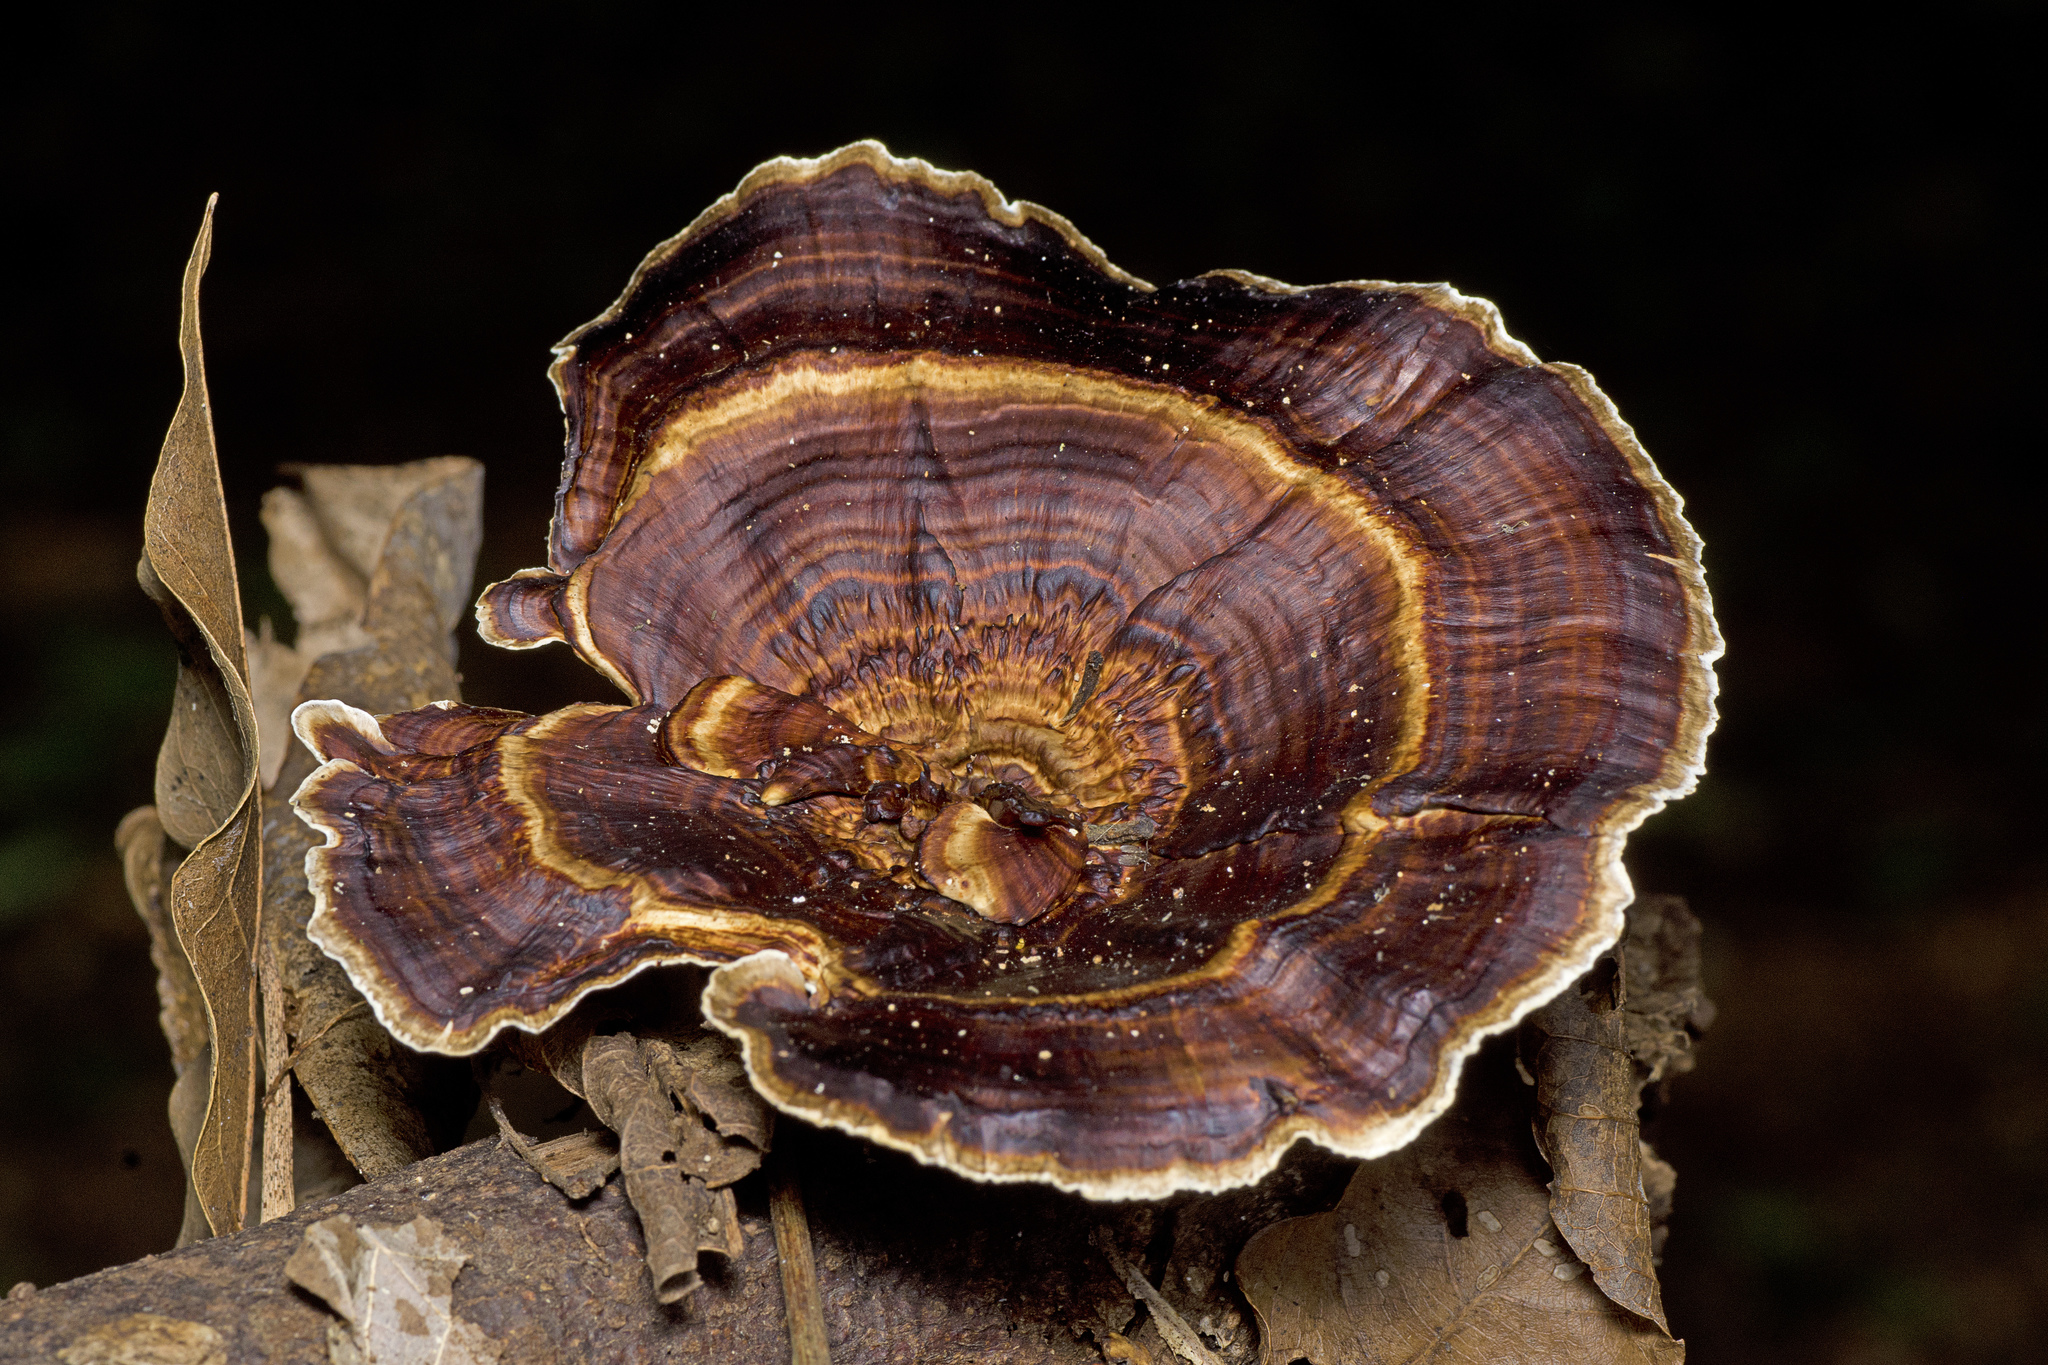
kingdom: Fungi
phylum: Basidiomycota
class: Agaricomycetes
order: Polyporales
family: Polyporaceae
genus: Microporus
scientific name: Microporus xanthopus
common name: Yellow-stemmed micropore
